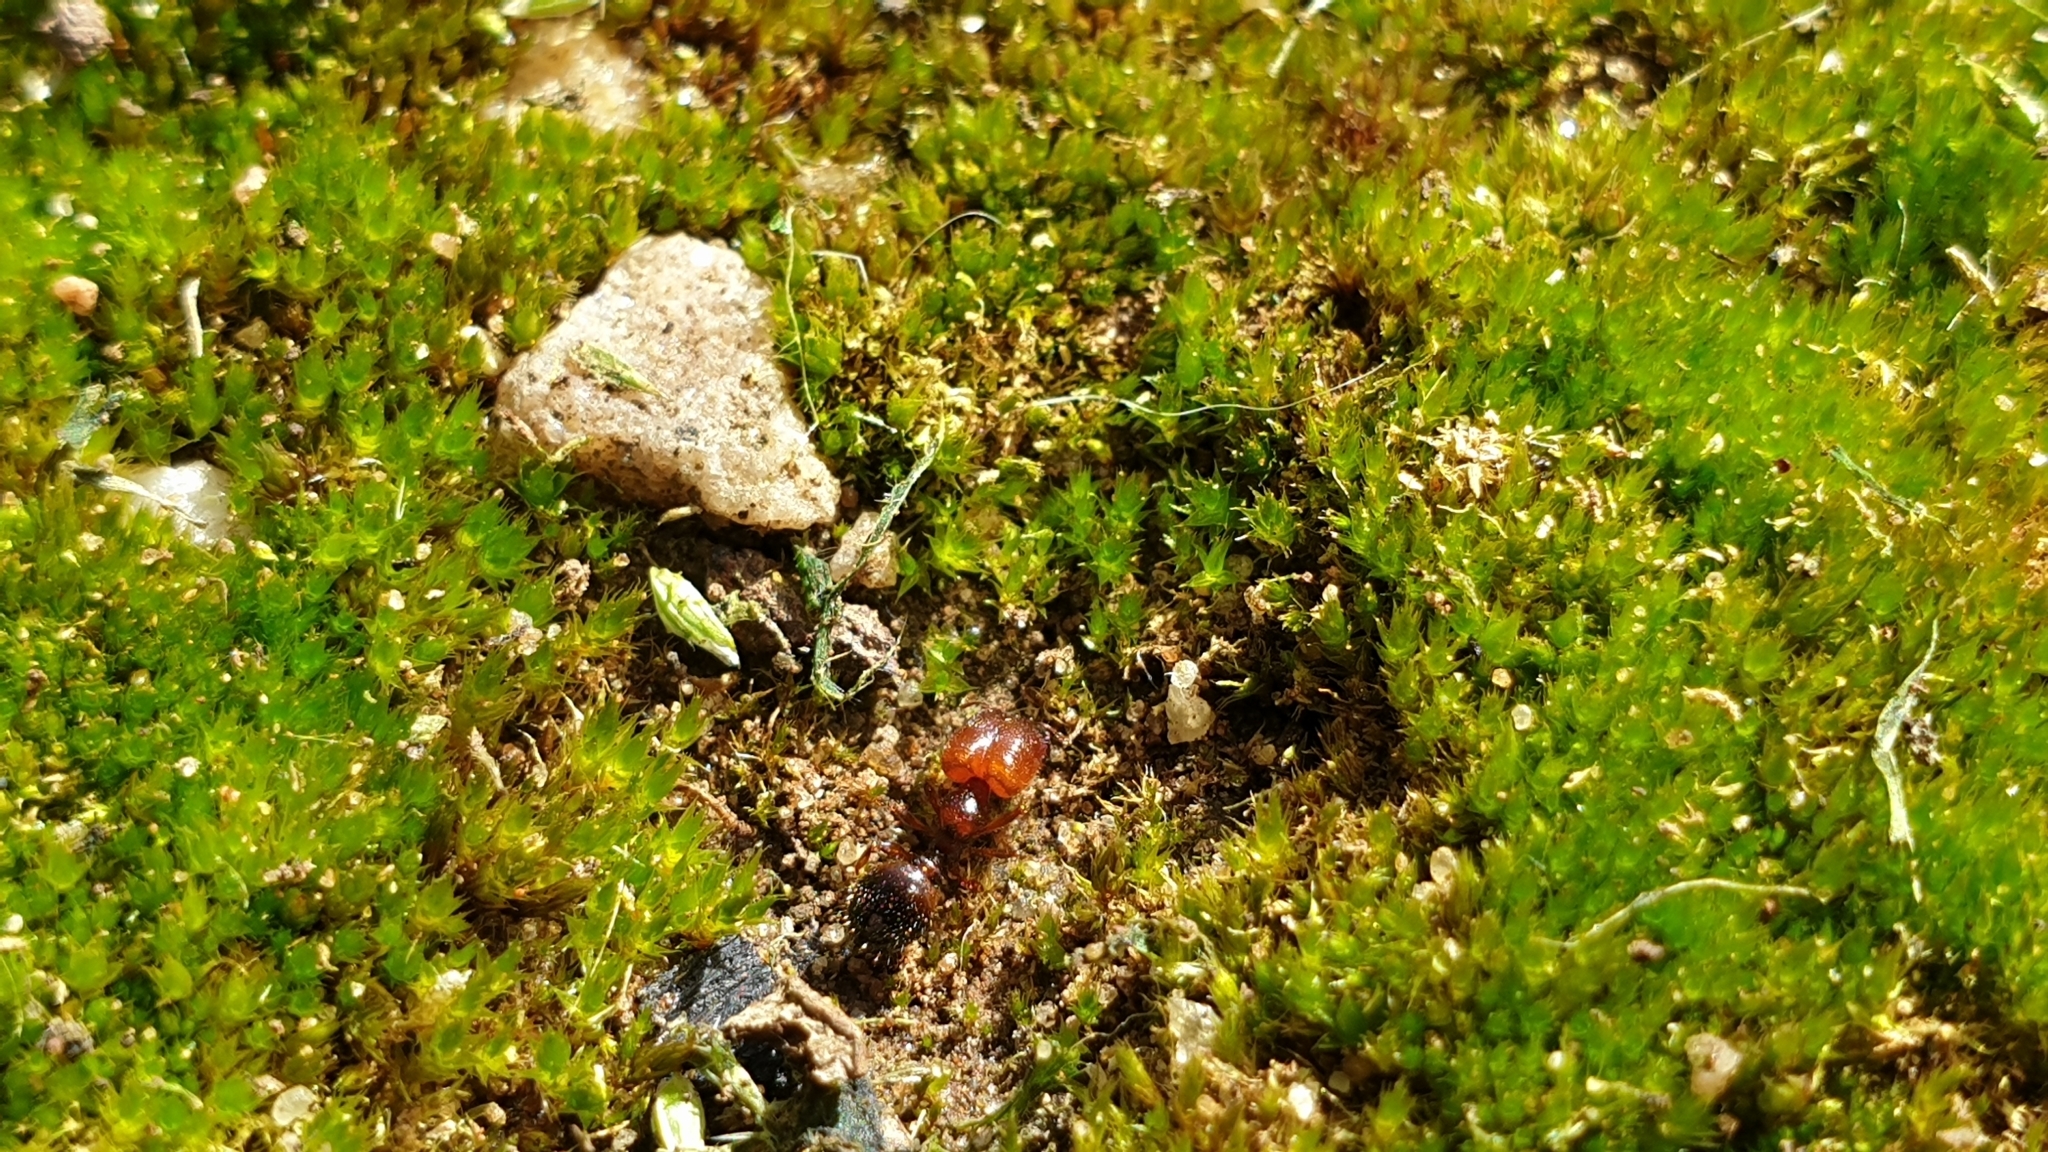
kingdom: Animalia
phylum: Arthropoda
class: Insecta
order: Hymenoptera
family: Formicidae
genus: Pheidole
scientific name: Pheidole
